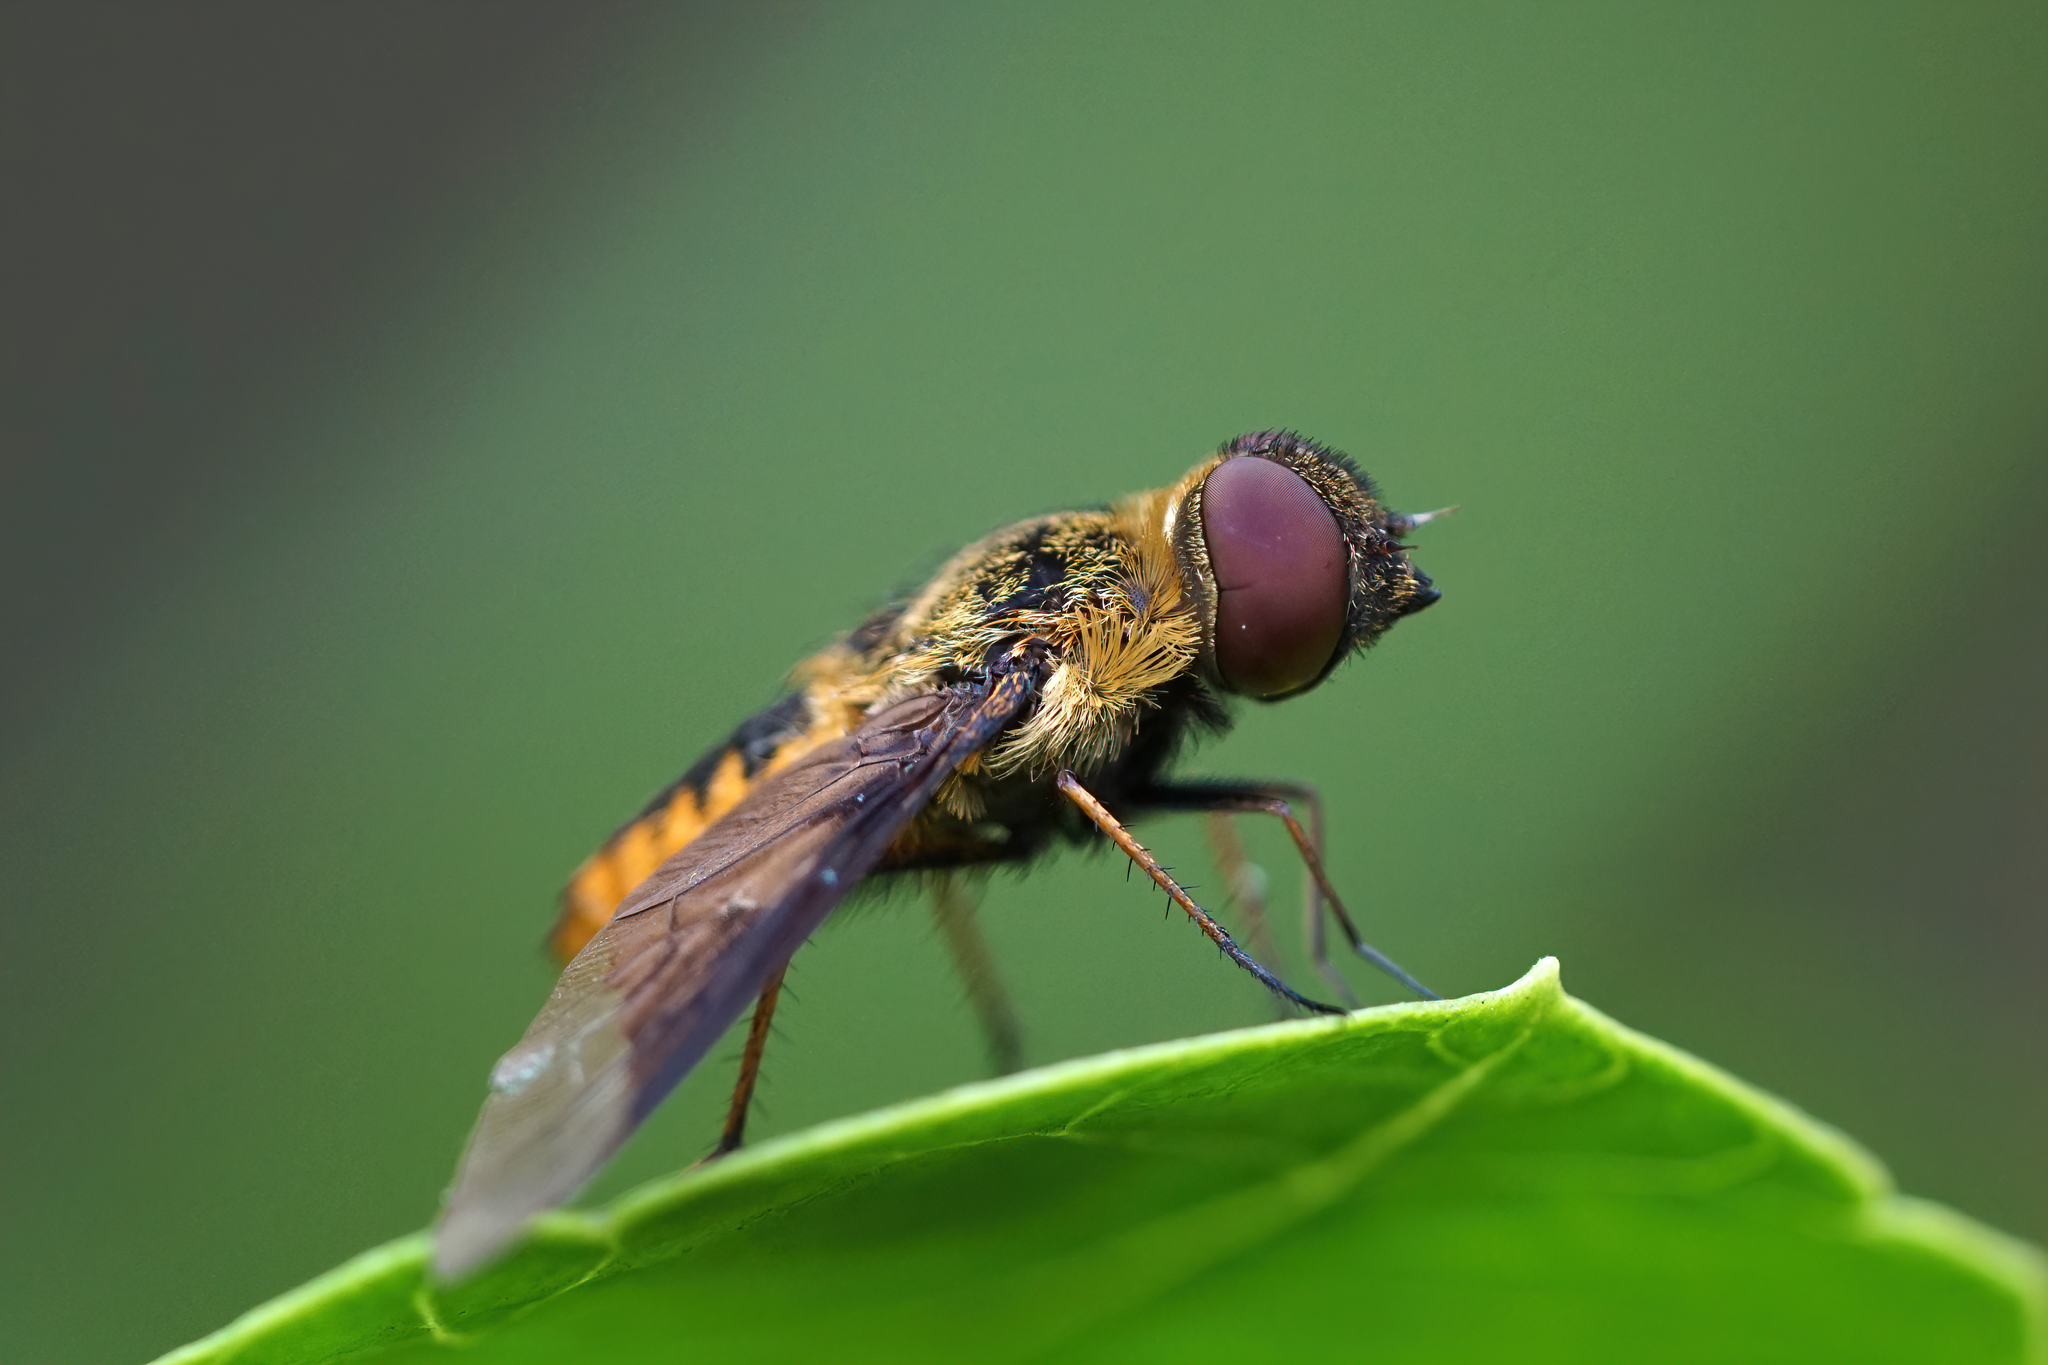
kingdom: Animalia
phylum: Arthropoda
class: Insecta
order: Diptera
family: Bombyliidae
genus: Chrysanthrax
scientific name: Chrysanthrax cypris
